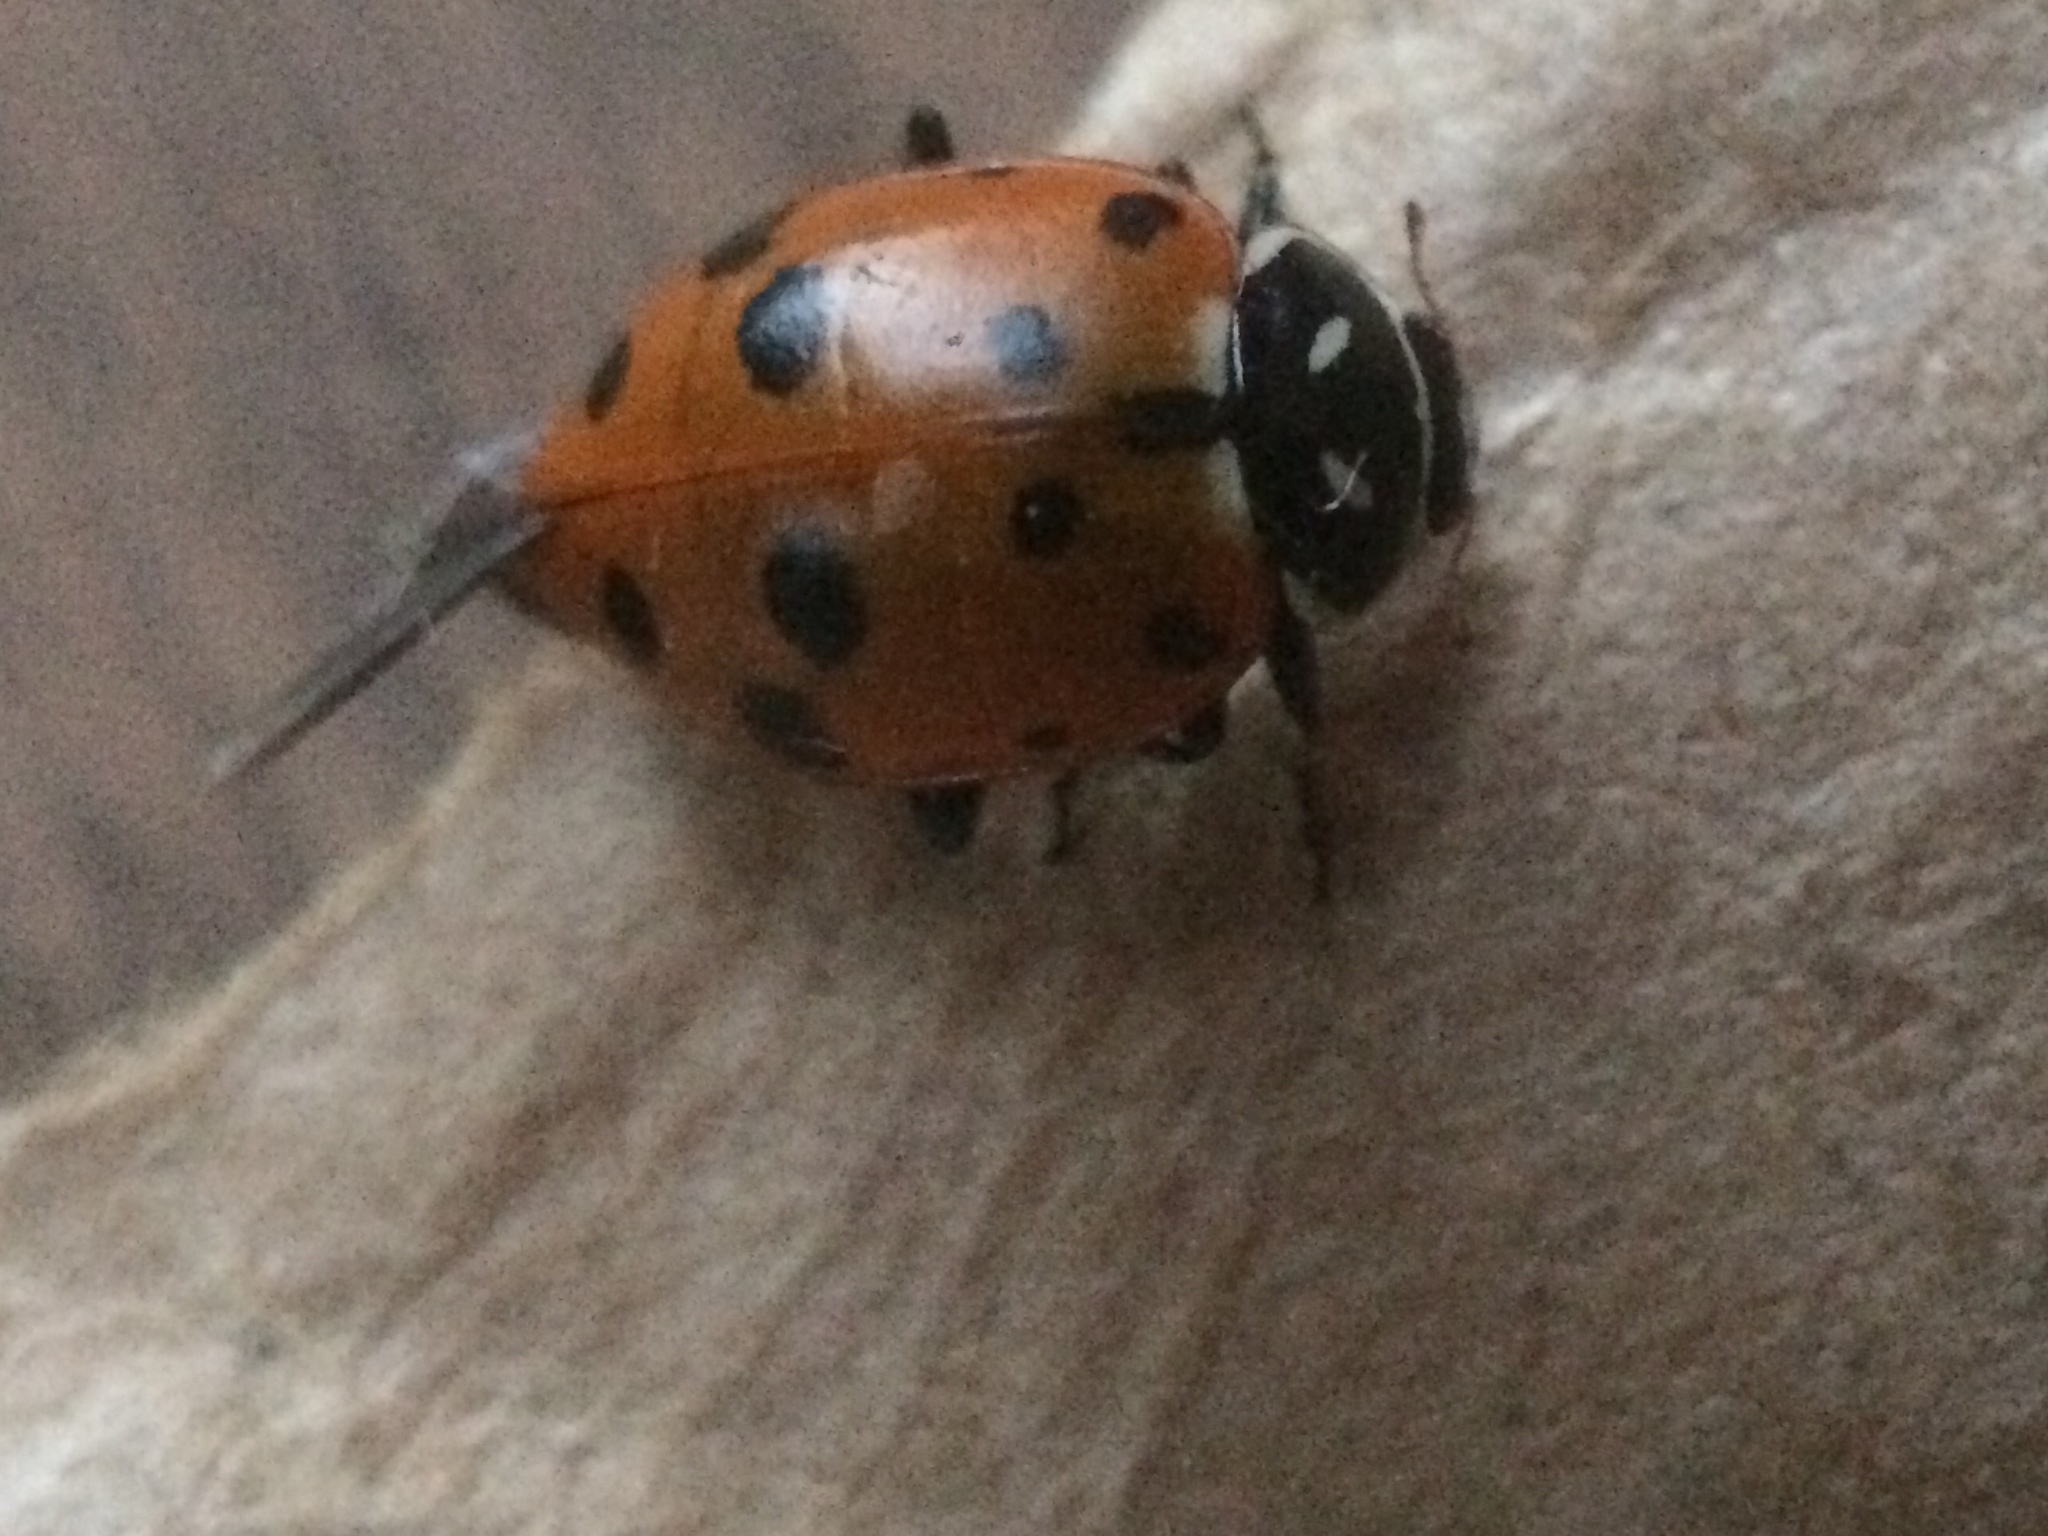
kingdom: Animalia
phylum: Arthropoda
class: Insecta
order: Coleoptera
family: Coccinellidae
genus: Hippodamia
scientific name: Hippodamia convergens
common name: Convergent lady beetle
